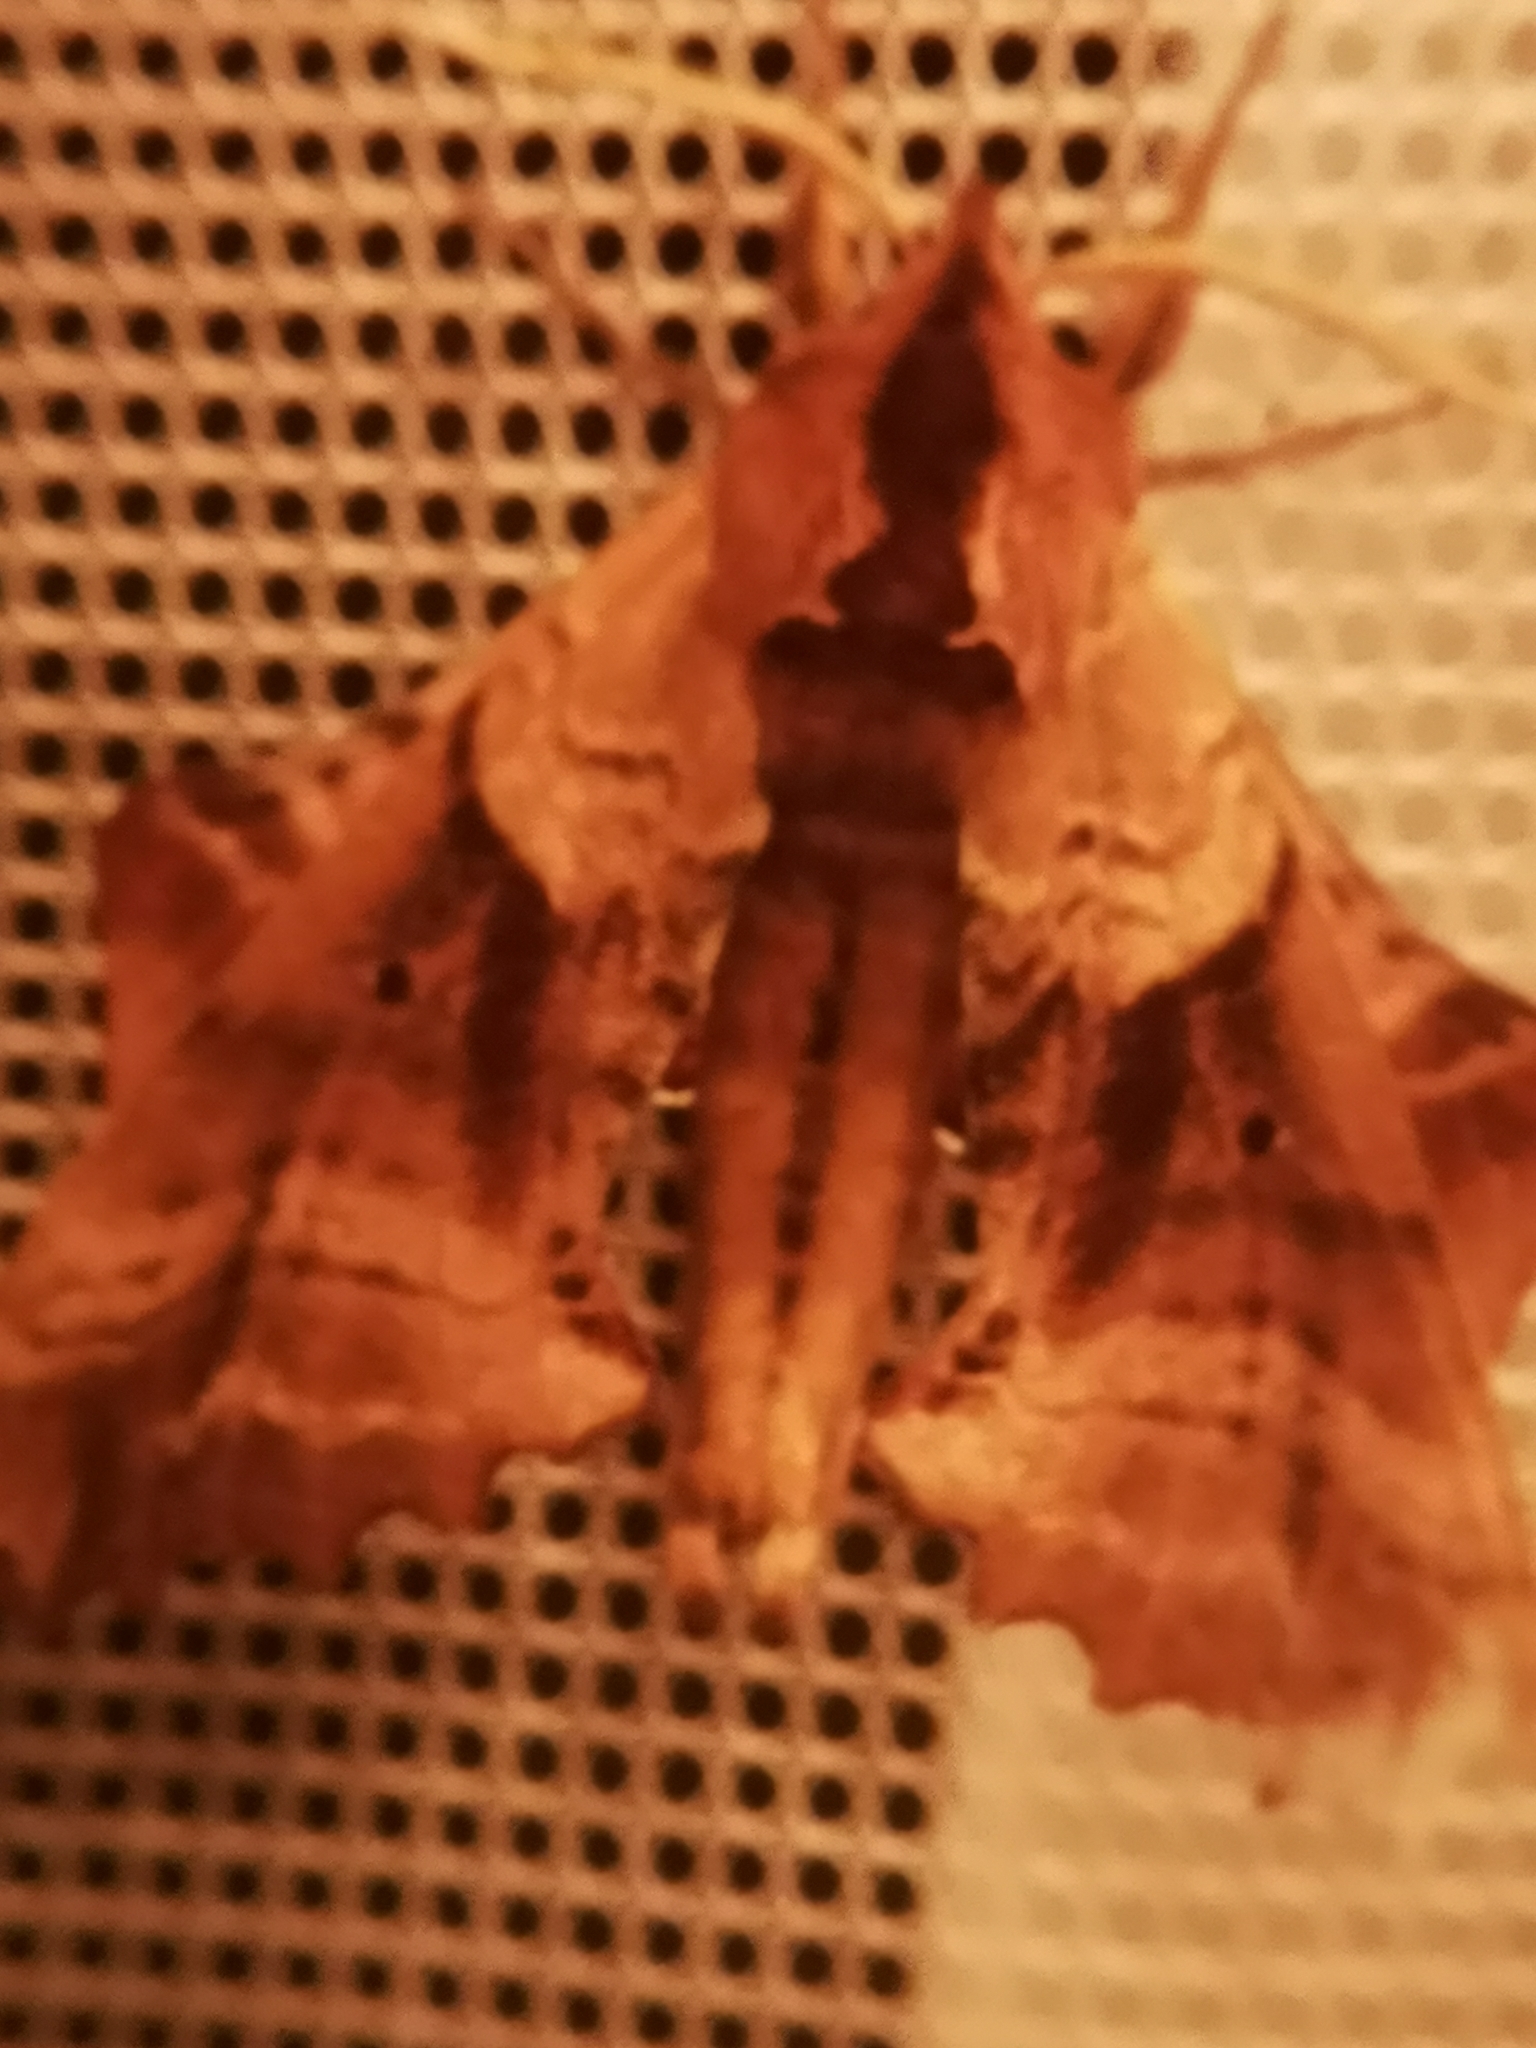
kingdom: Animalia
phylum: Arthropoda
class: Insecta
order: Lepidoptera
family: Sphingidae
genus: Paonias
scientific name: Paonias excaecata
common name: Blind-eyed sphinx
